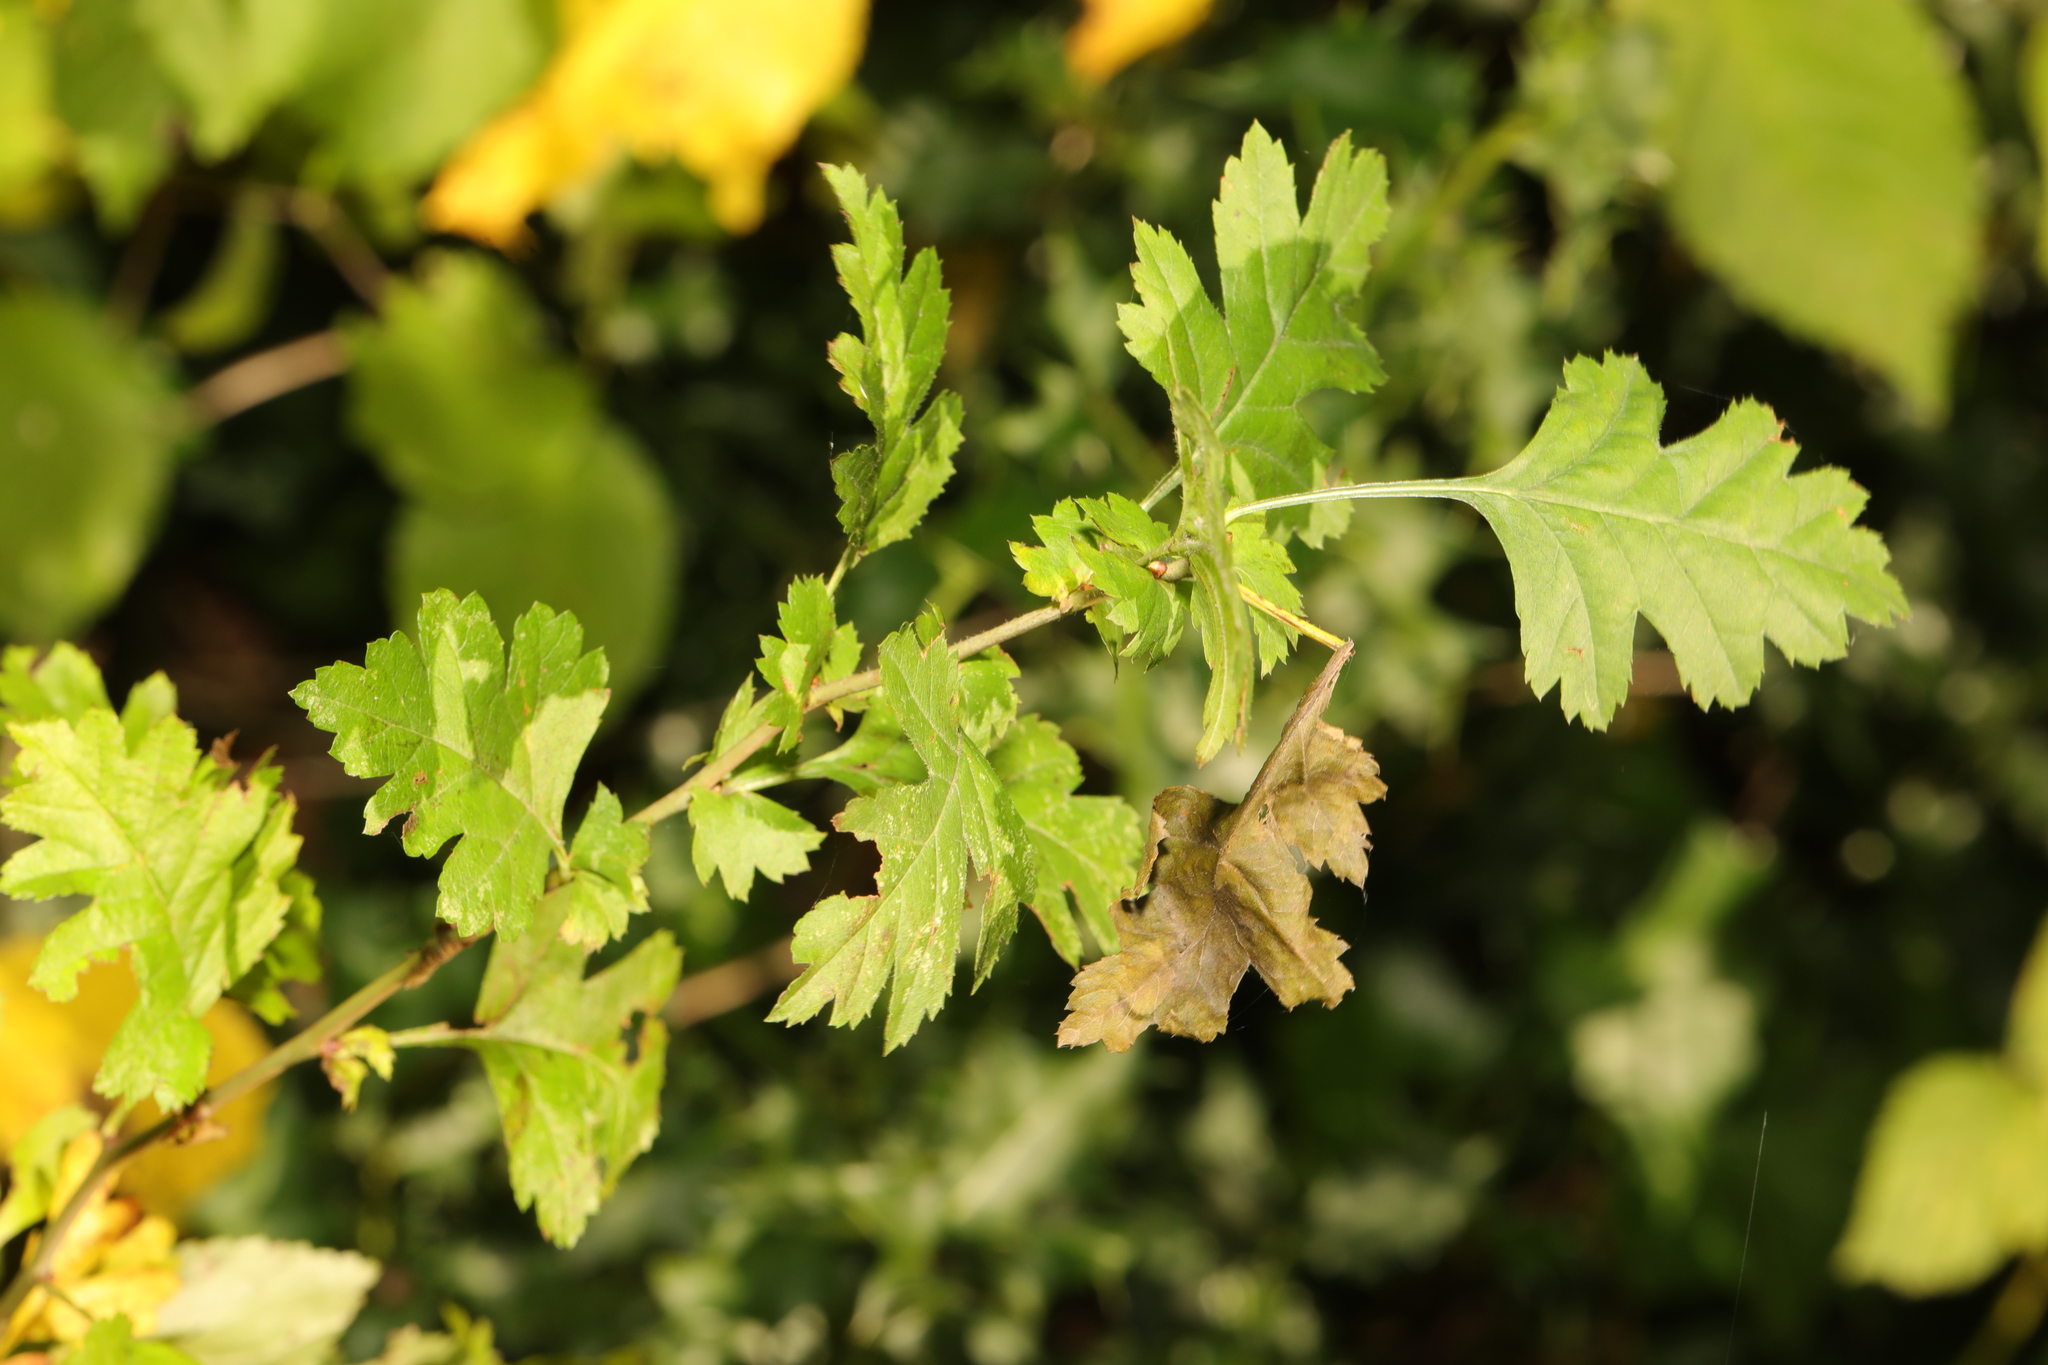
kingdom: Plantae
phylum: Tracheophyta
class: Magnoliopsida
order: Rosales
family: Rosaceae
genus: Crataegus
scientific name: Crataegus monogyna
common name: Hawthorn
